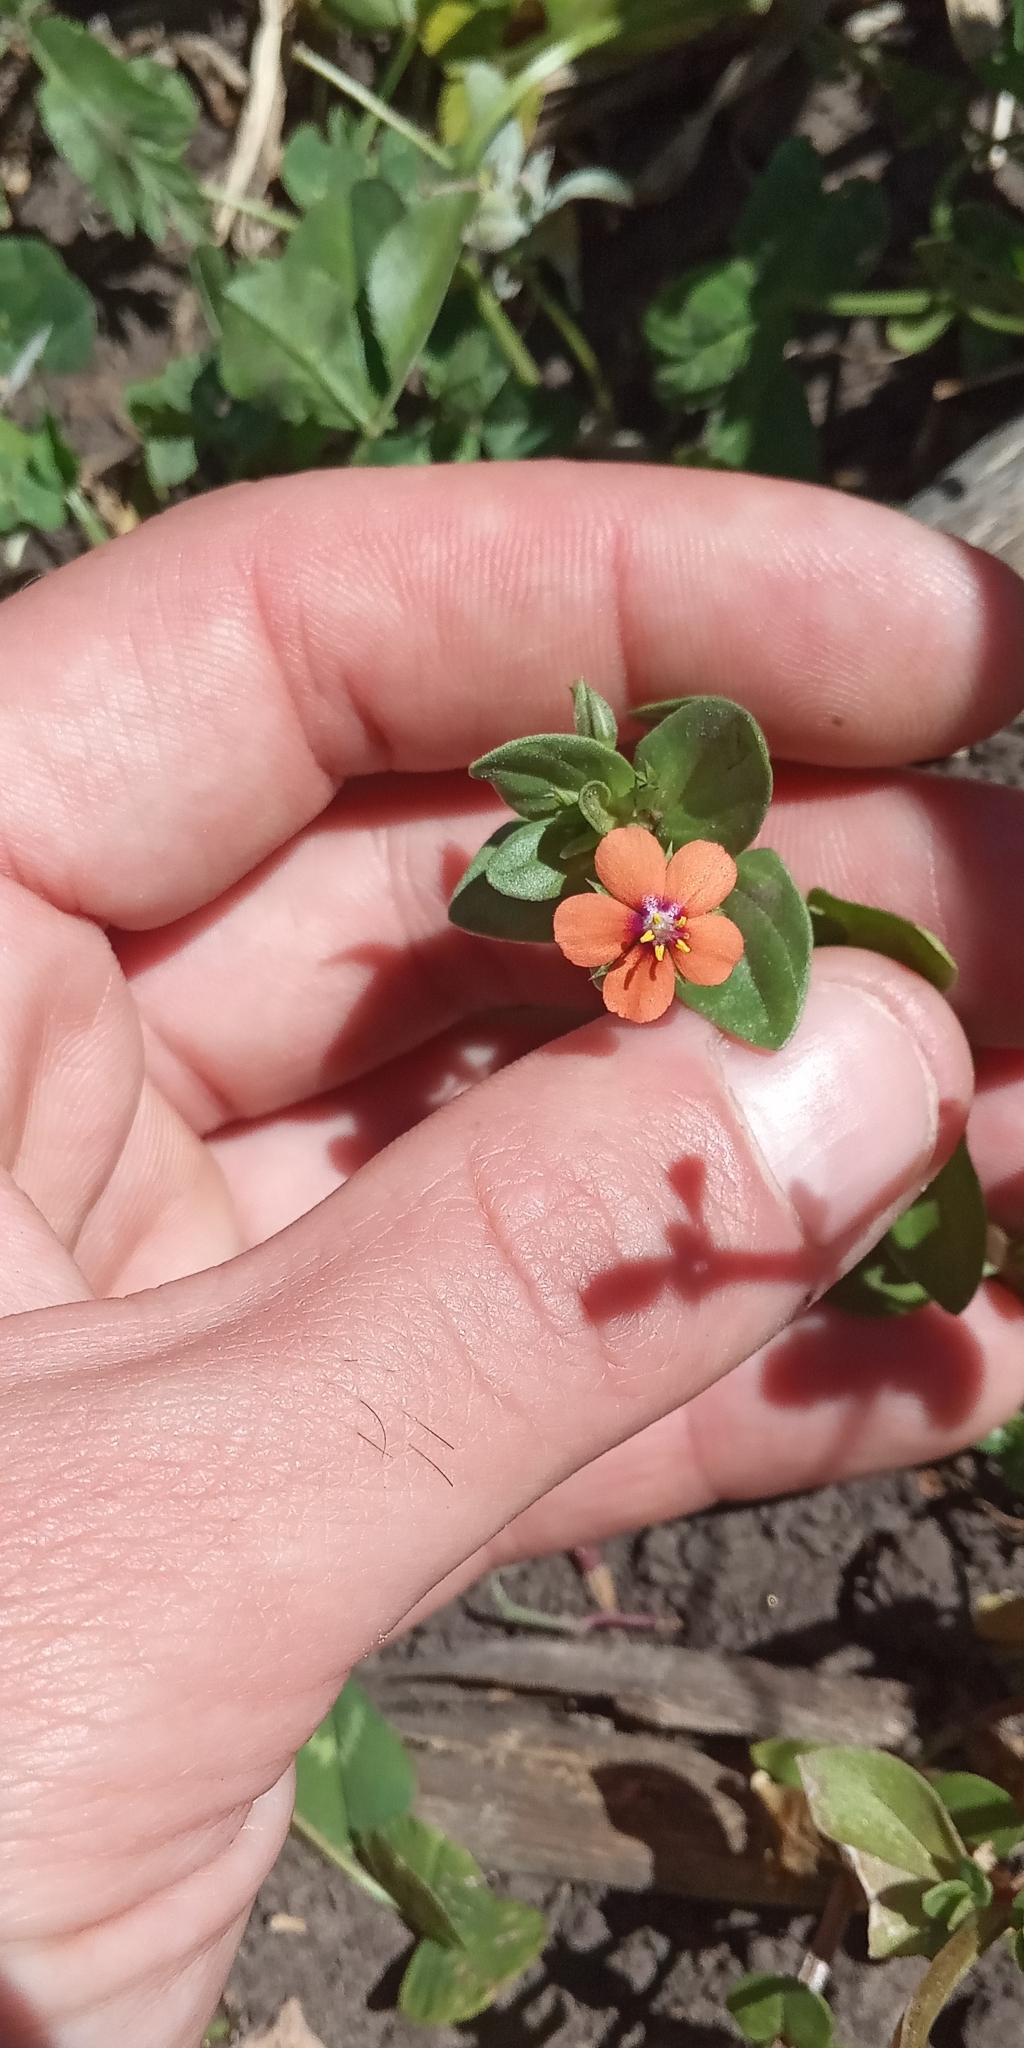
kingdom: Plantae
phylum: Tracheophyta
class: Magnoliopsida
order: Ericales
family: Primulaceae
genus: Lysimachia
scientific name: Lysimachia arvensis
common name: Scarlet pimpernel
